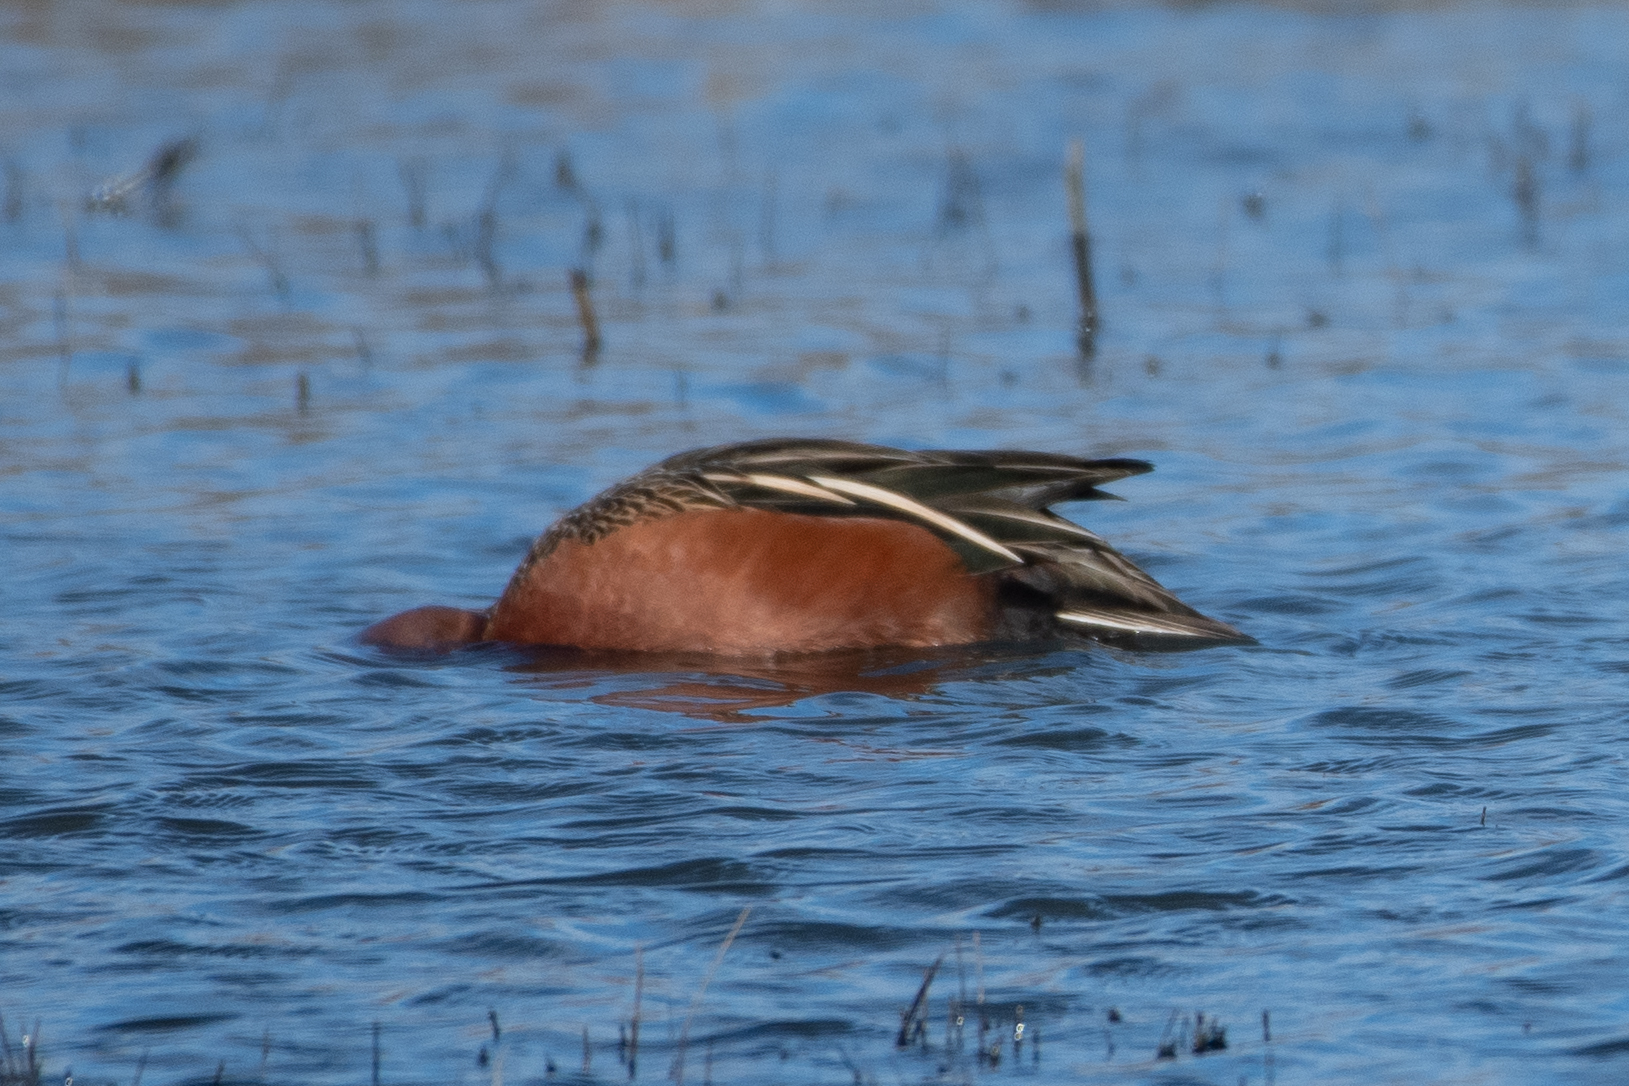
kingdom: Animalia
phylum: Chordata
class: Aves
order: Anseriformes
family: Anatidae
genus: Spatula
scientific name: Spatula cyanoptera
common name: Cinnamon teal
